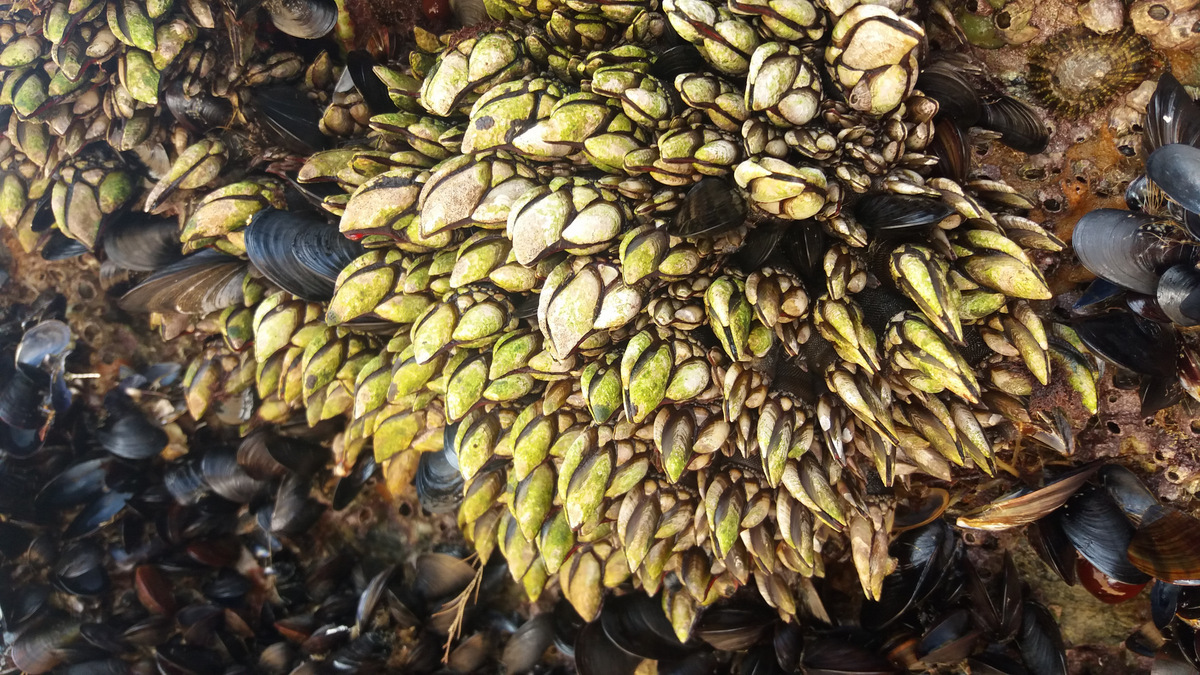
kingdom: Animalia
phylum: Arthropoda
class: Maxillopoda
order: Pedunculata
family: Pollicipedidae
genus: Pollicipes
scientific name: Pollicipes pollicipes
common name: Gooseneck barnacle
